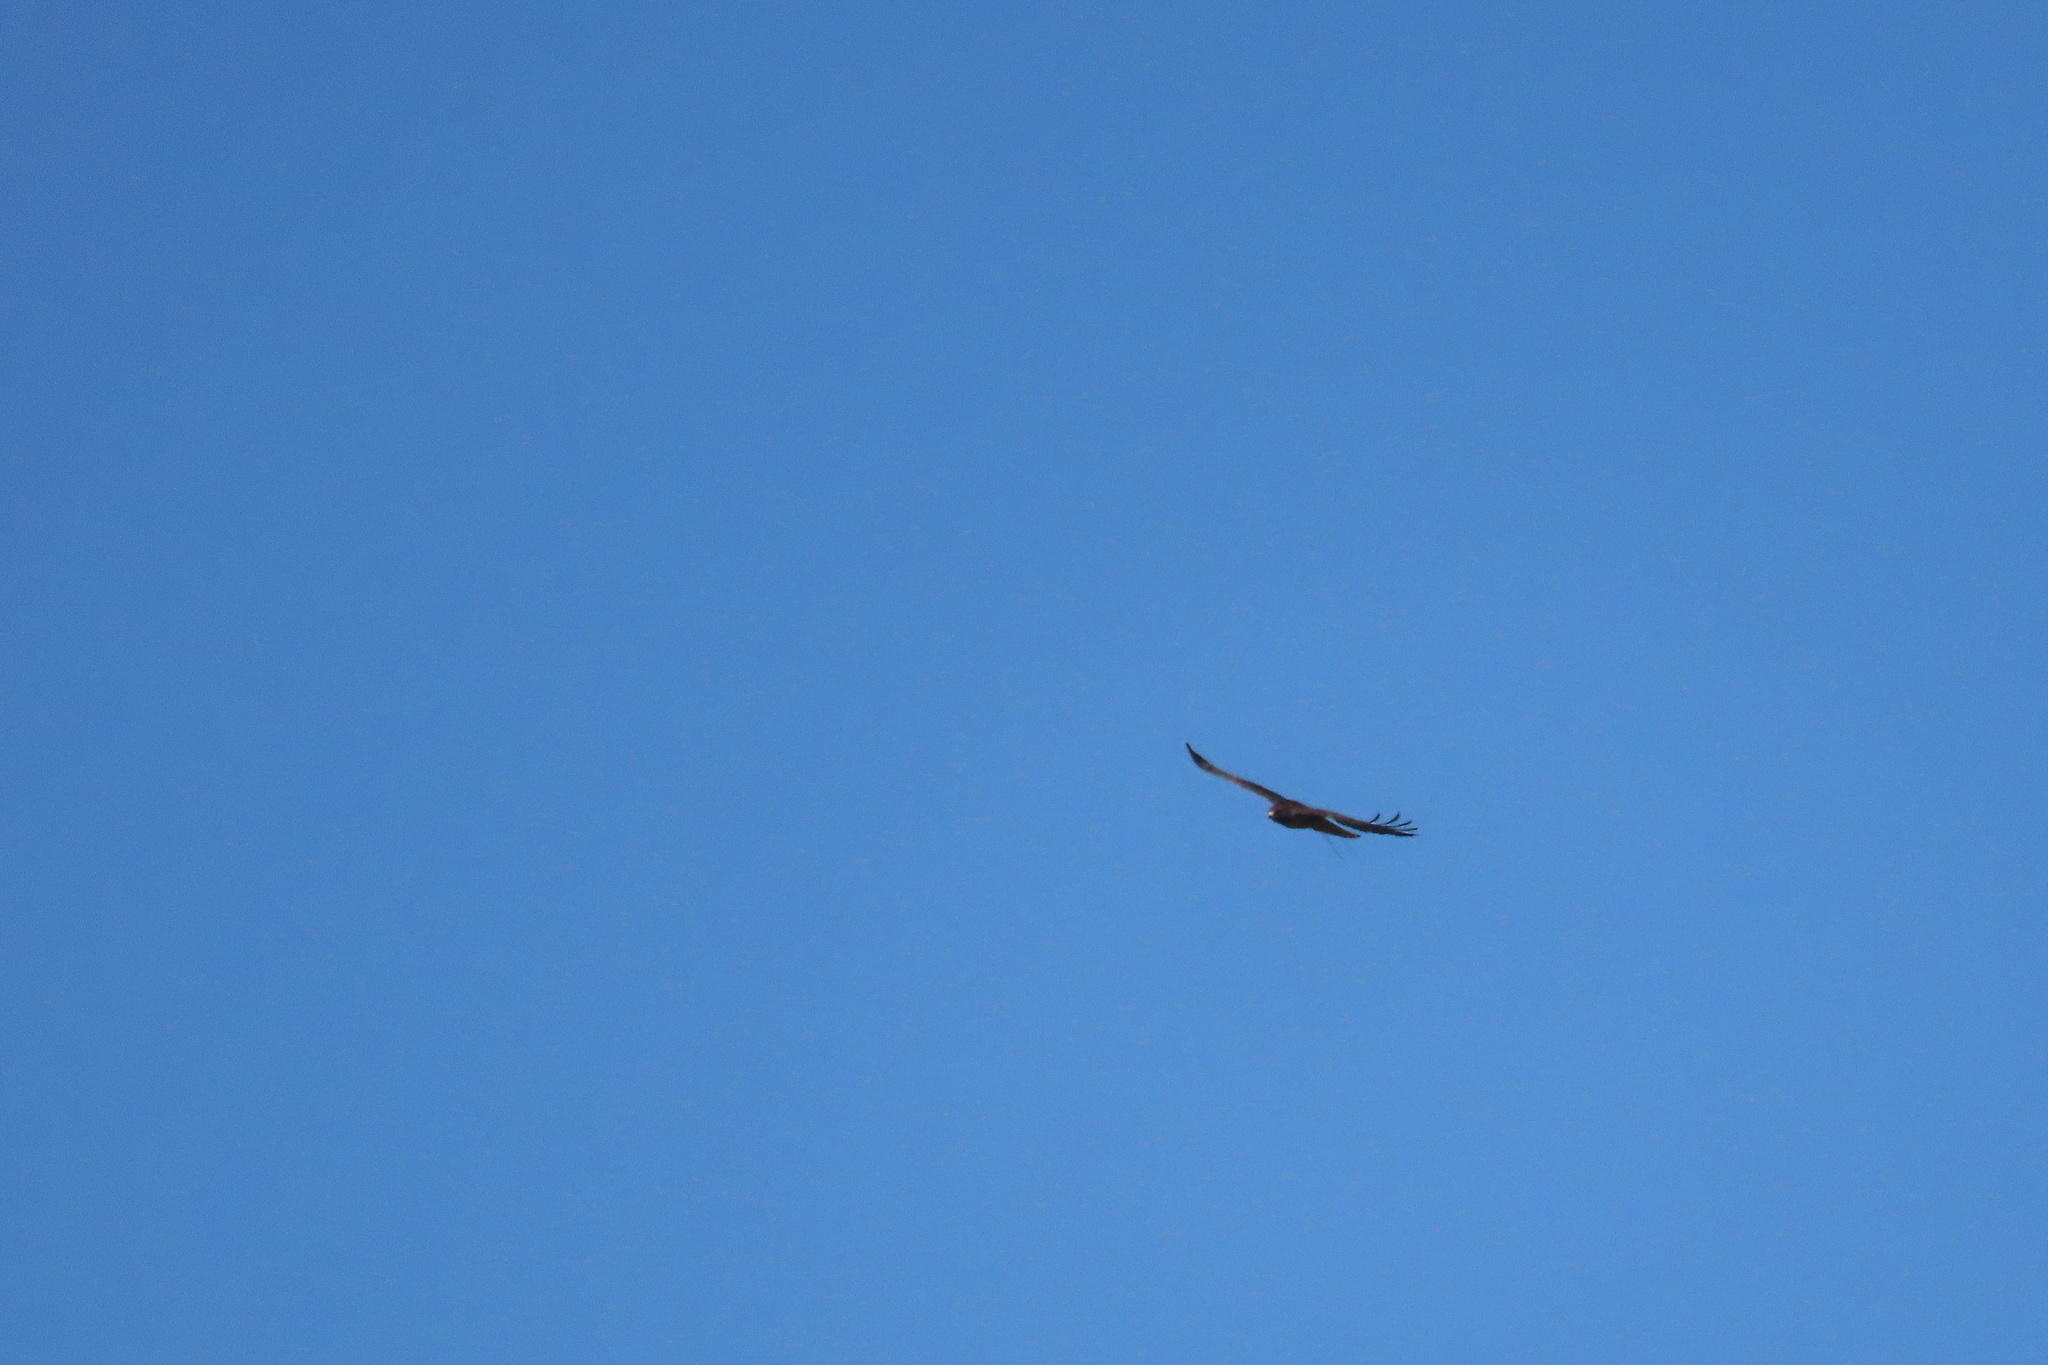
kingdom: Animalia
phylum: Chordata
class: Aves
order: Accipitriformes
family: Accipitridae
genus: Buteo
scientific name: Buteo jamaicensis
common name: Red-tailed hawk
